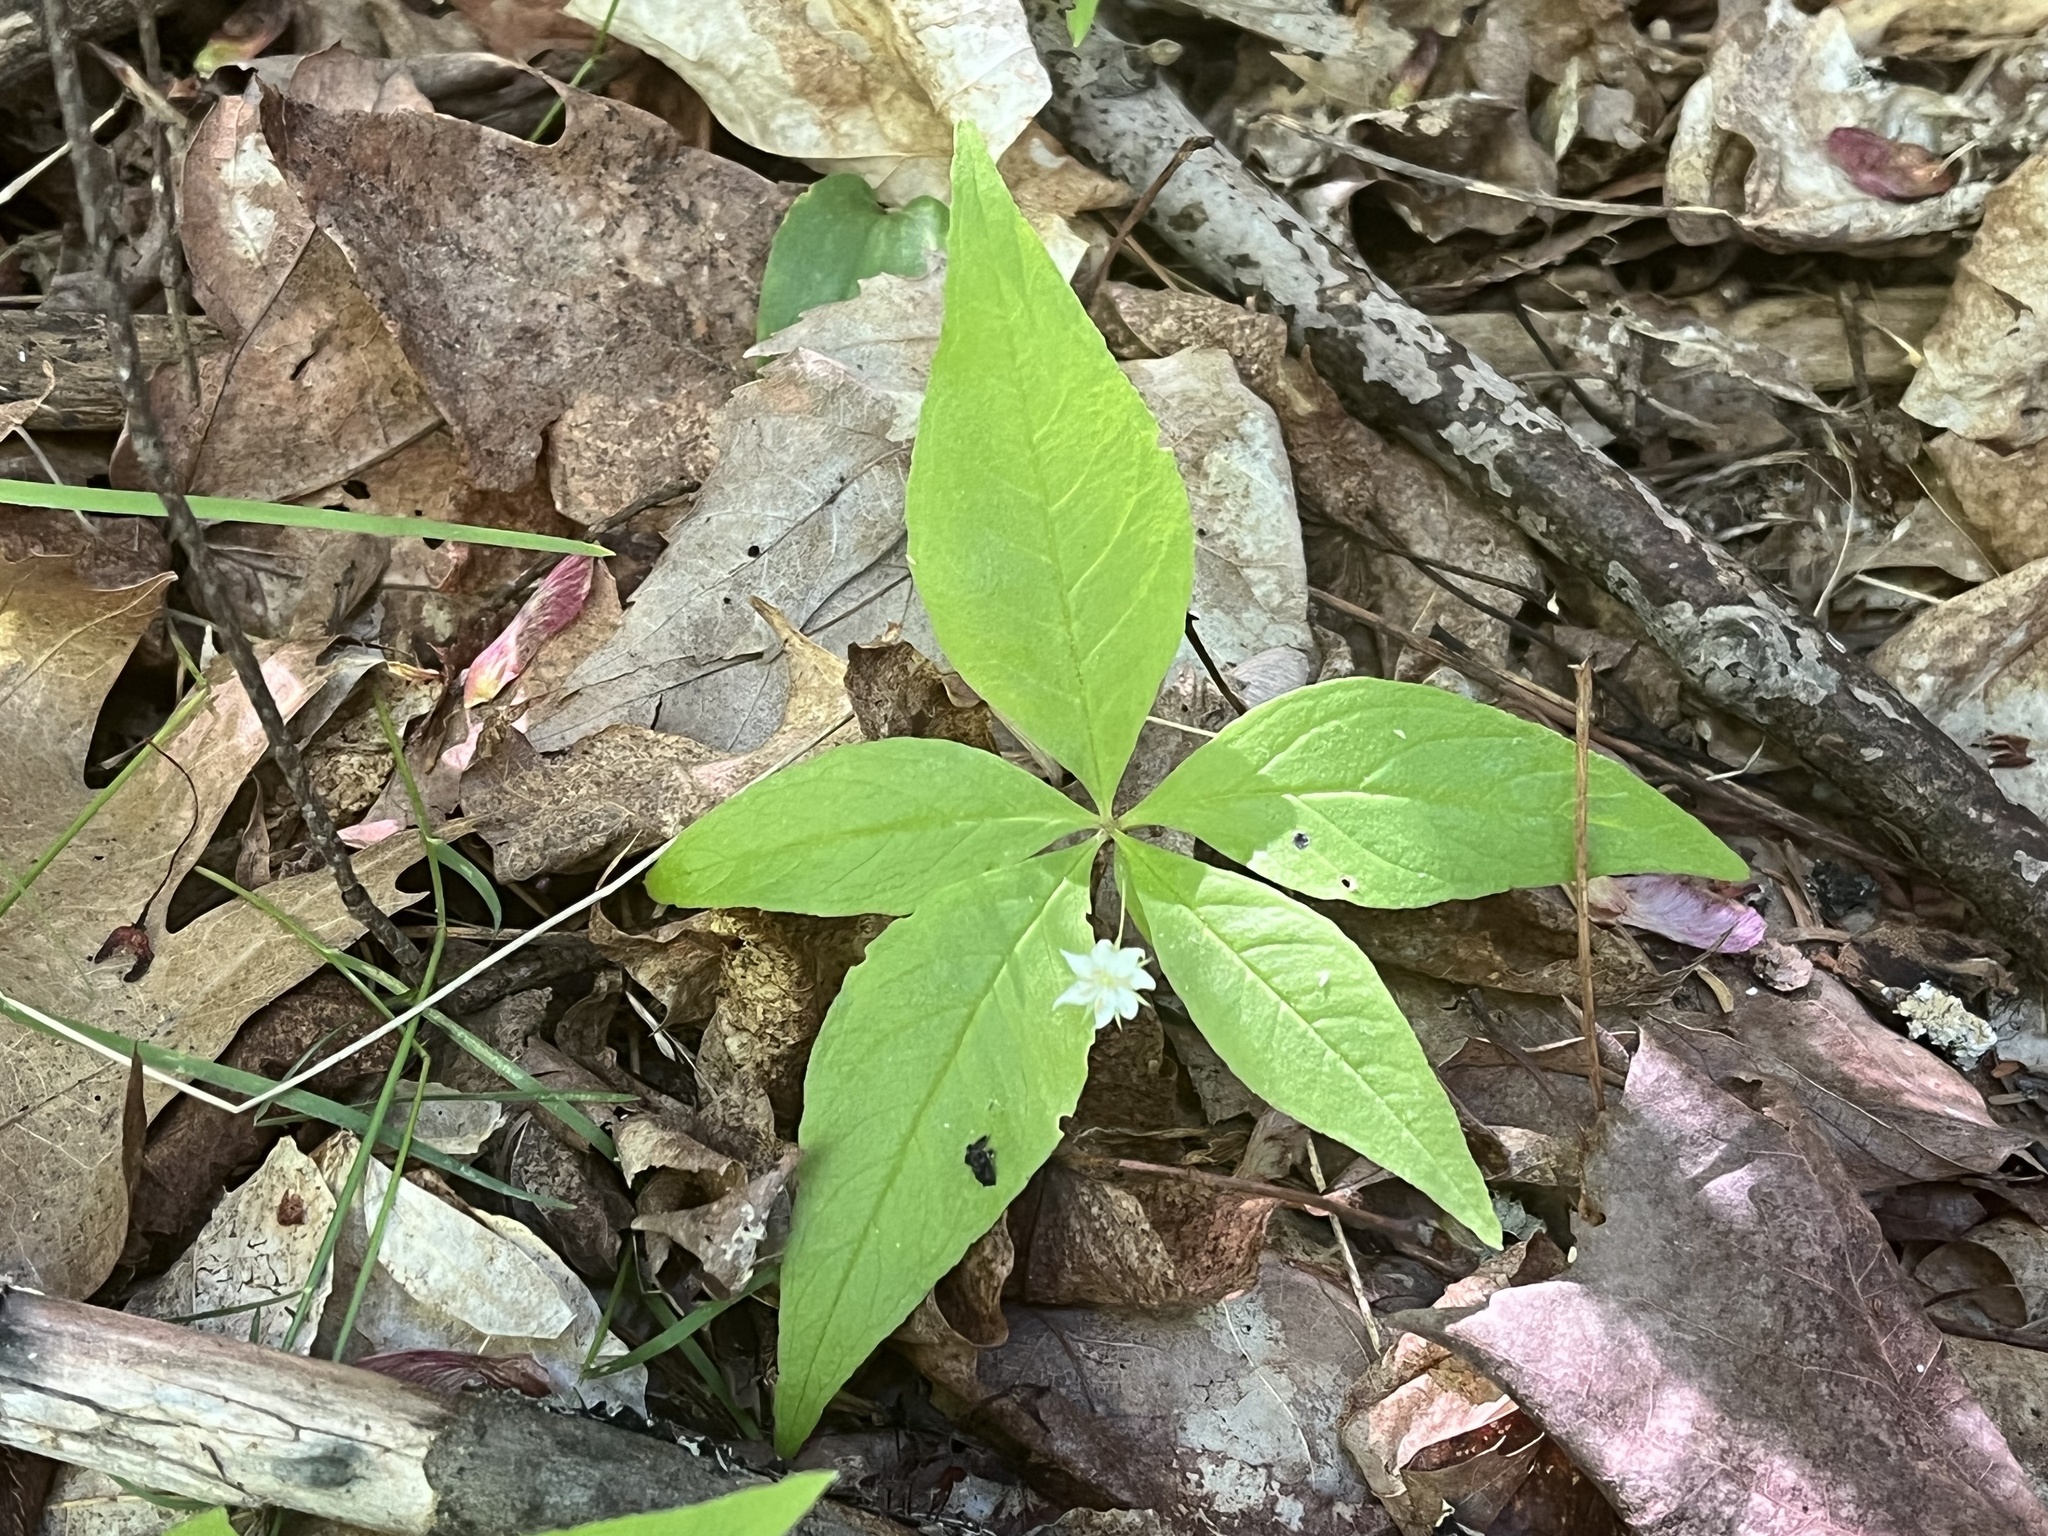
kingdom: Plantae
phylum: Tracheophyta
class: Magnoliopsida
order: Ericales
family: Primulaceae
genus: Lysimachia
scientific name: Lysimachia borealis
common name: American starflower
